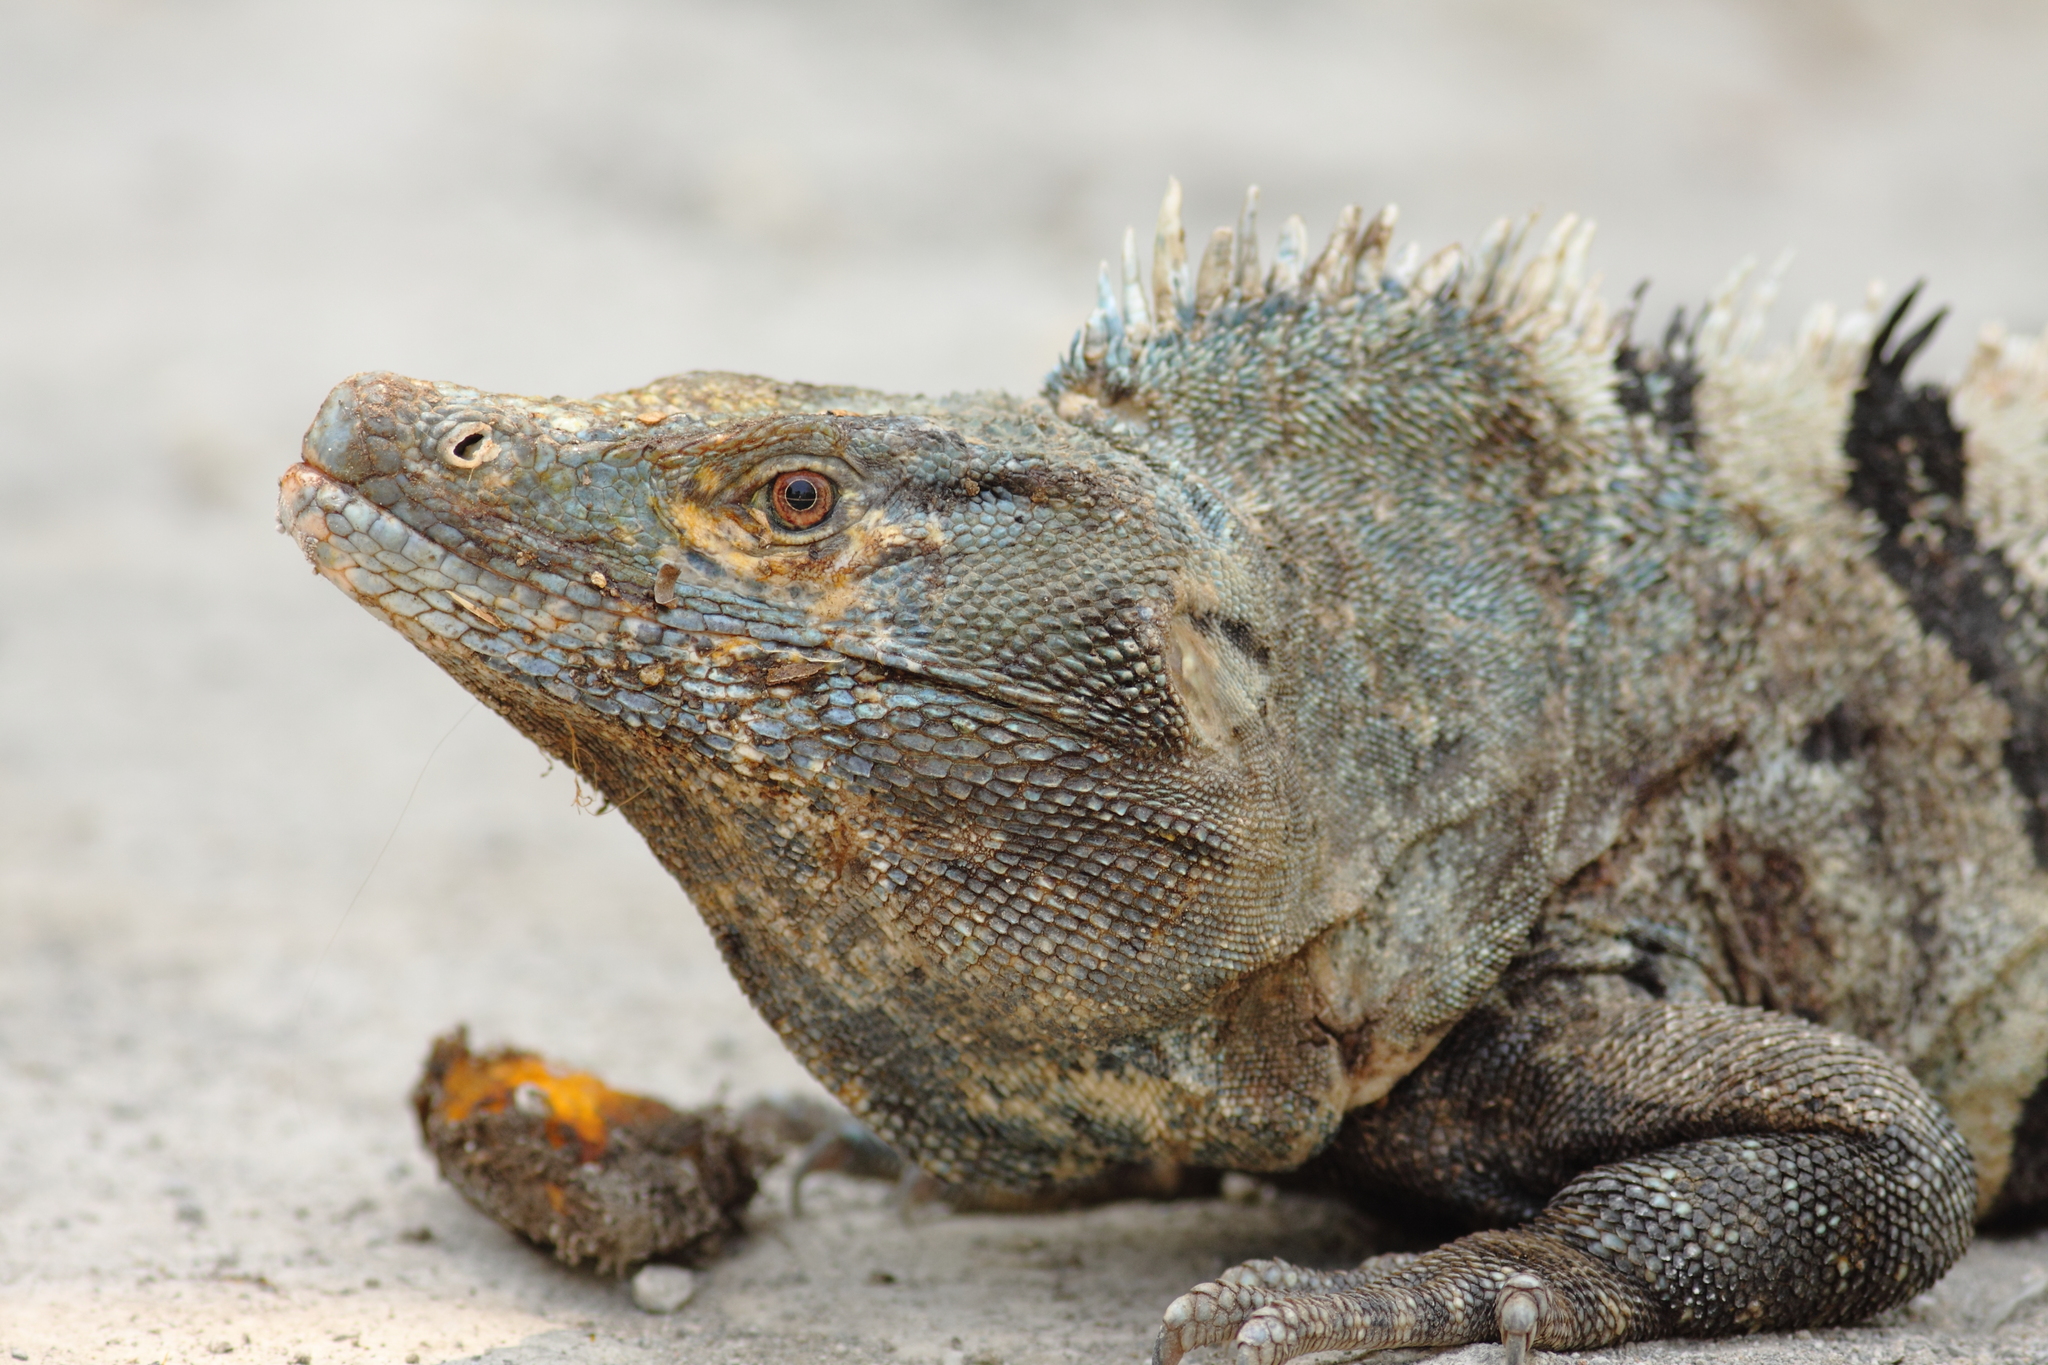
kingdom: Animalia
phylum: Chordata
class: Squamata
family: Iguanidae
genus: Ctenosaura
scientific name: Ctenosaura similis
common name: Black spiny-tailed iguana
